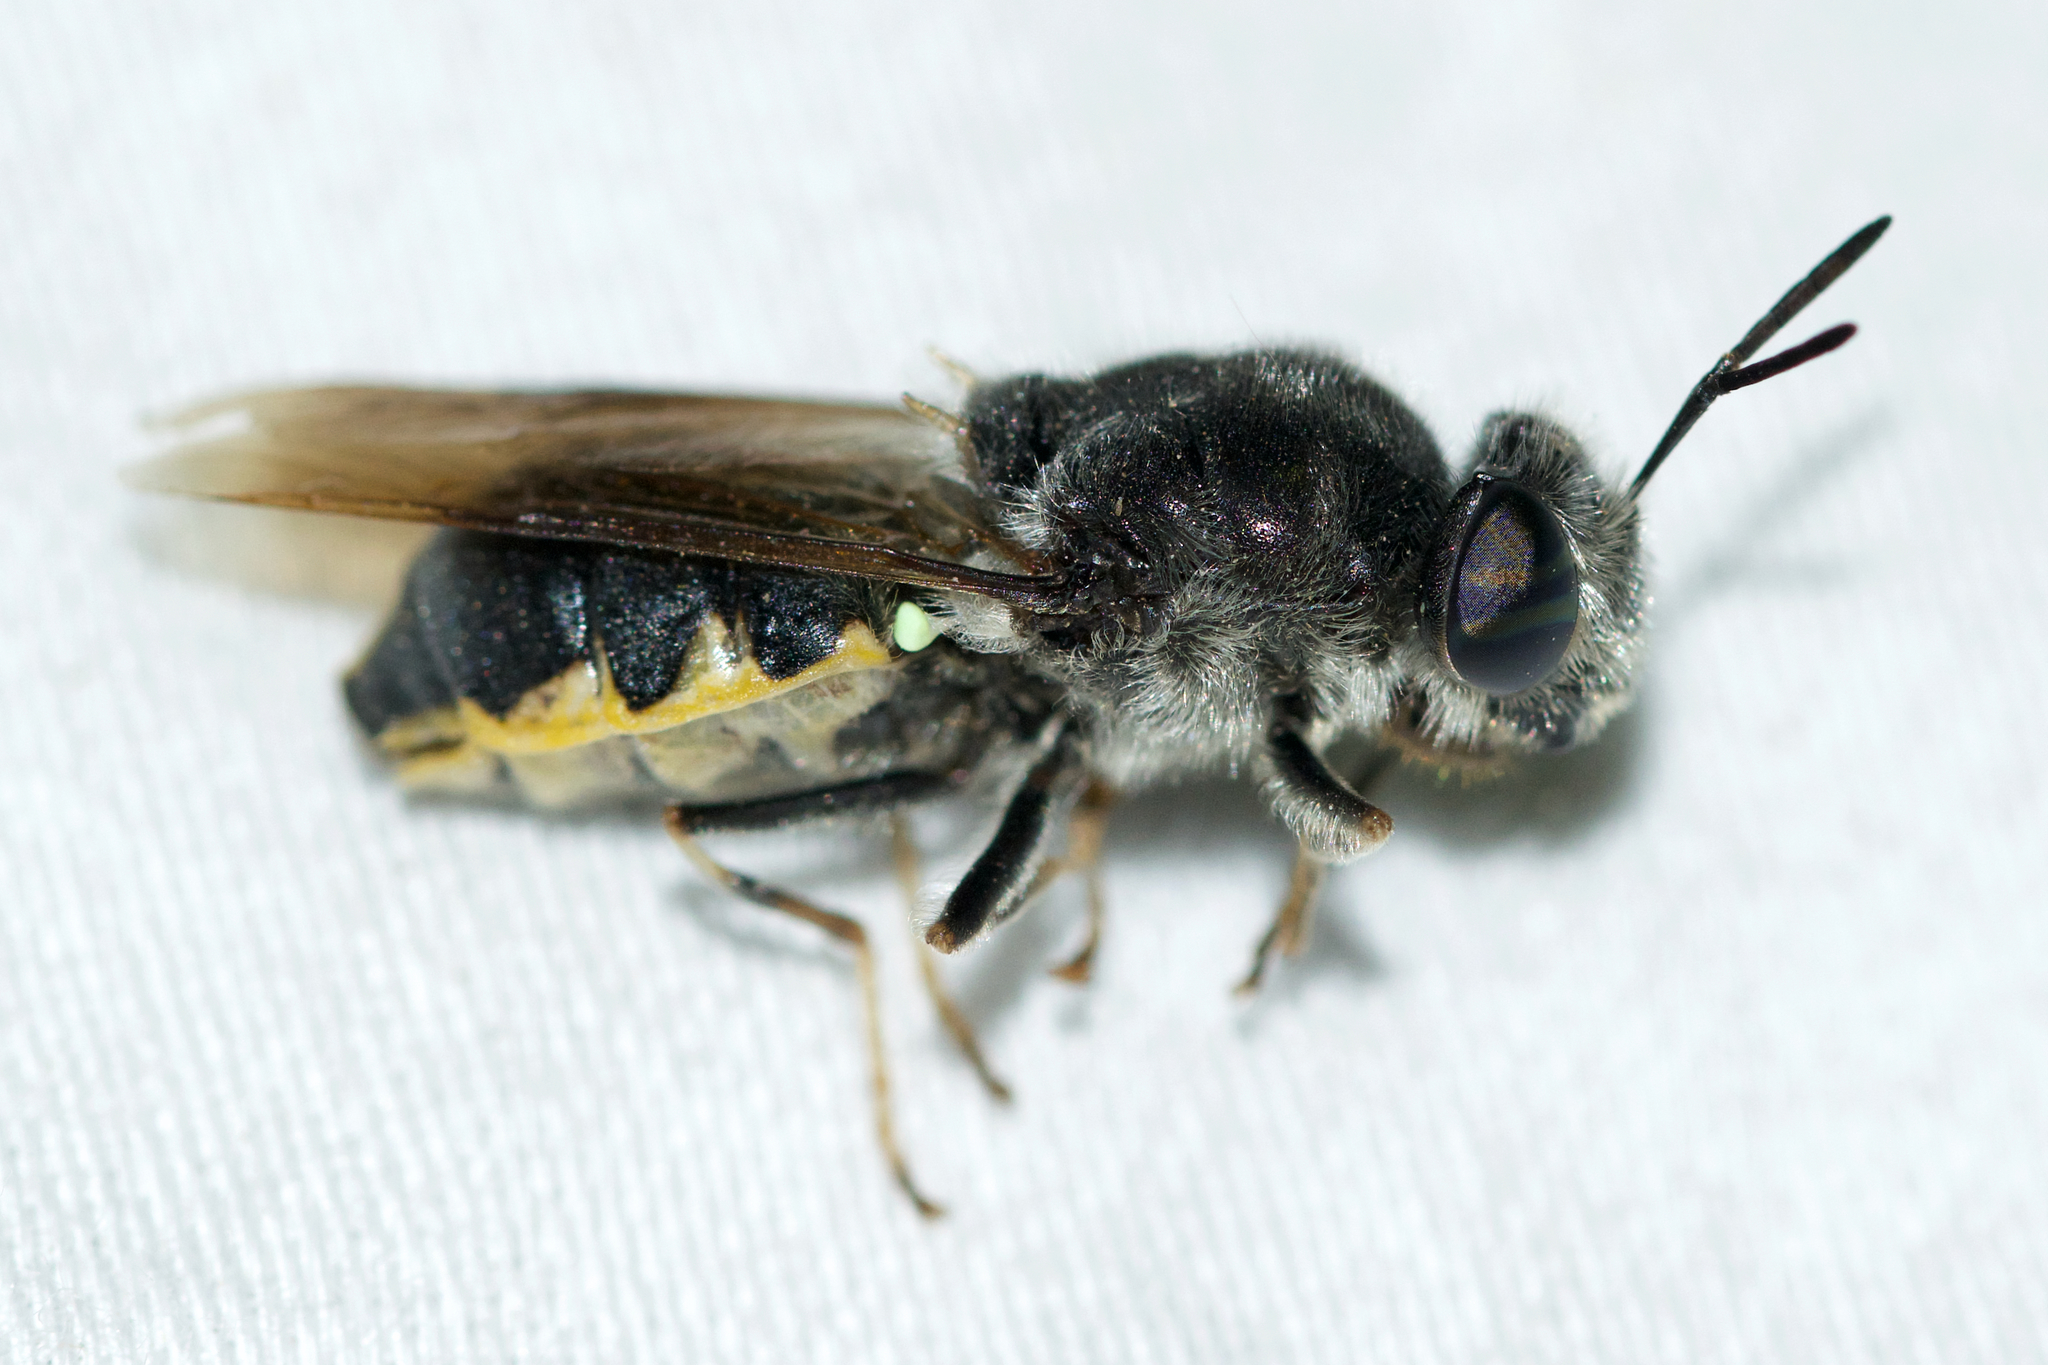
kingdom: Animalia
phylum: Arthropoda
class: Insecta
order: Diptera
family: Stratiomyidae
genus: Stratiomys
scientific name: Stratiomys meigenii
